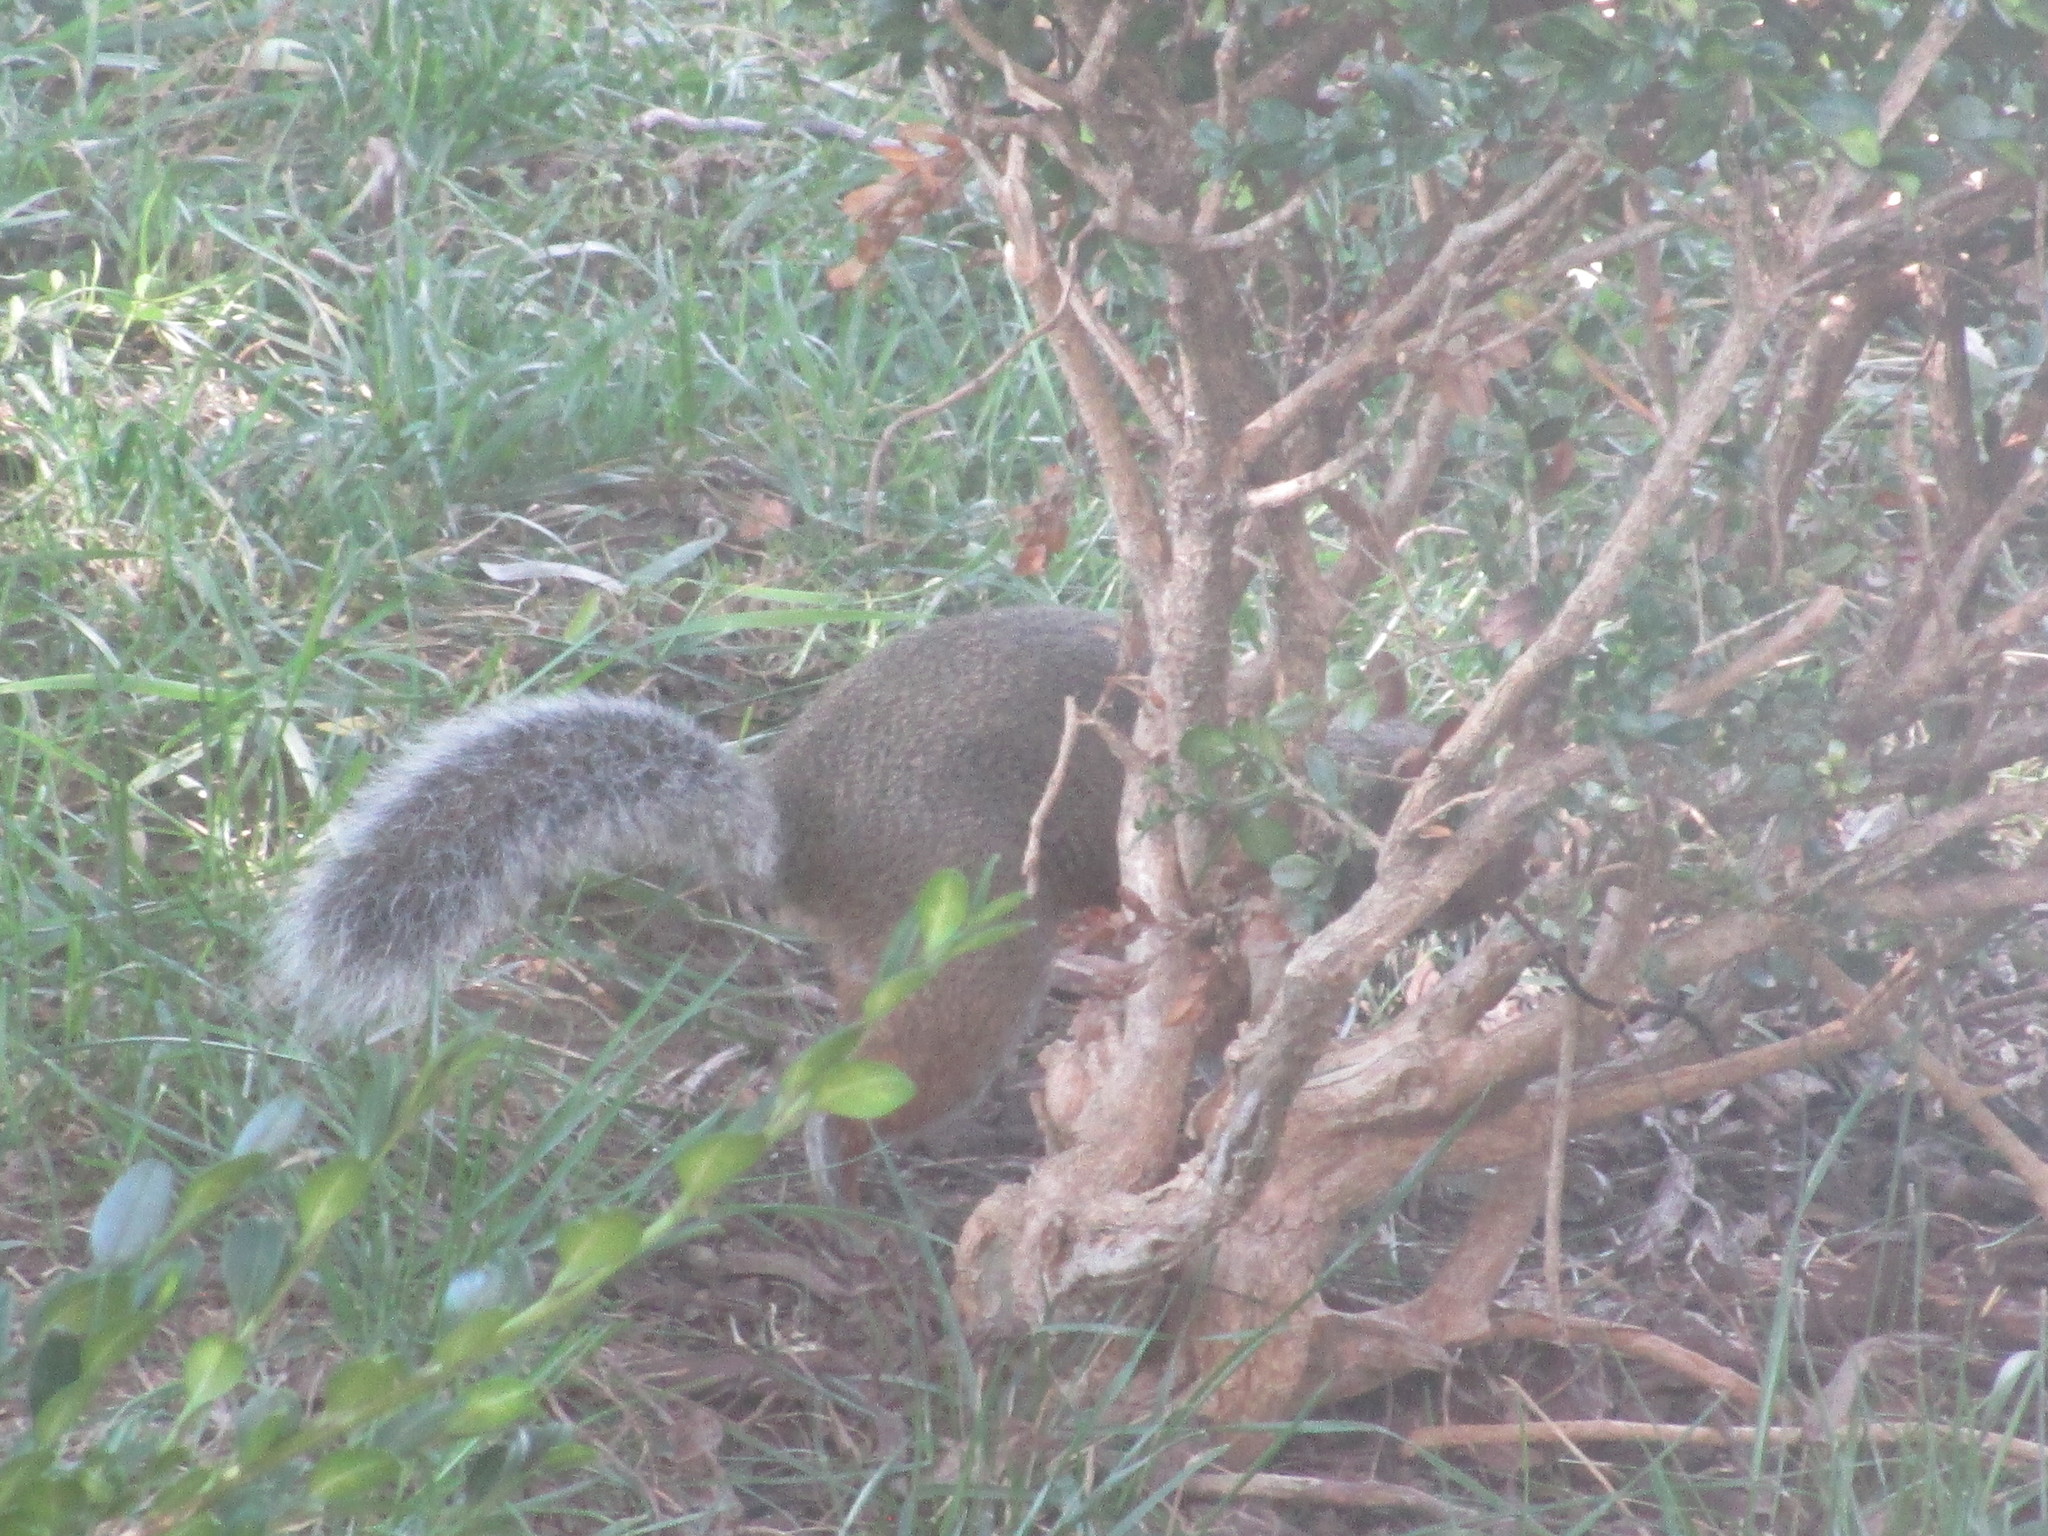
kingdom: Animalia
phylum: Chordata
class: Mammalia
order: Rodentia
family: Sciuridae
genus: Sciurus
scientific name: Sciurus carolinensis
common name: Eastern gray squirrel
